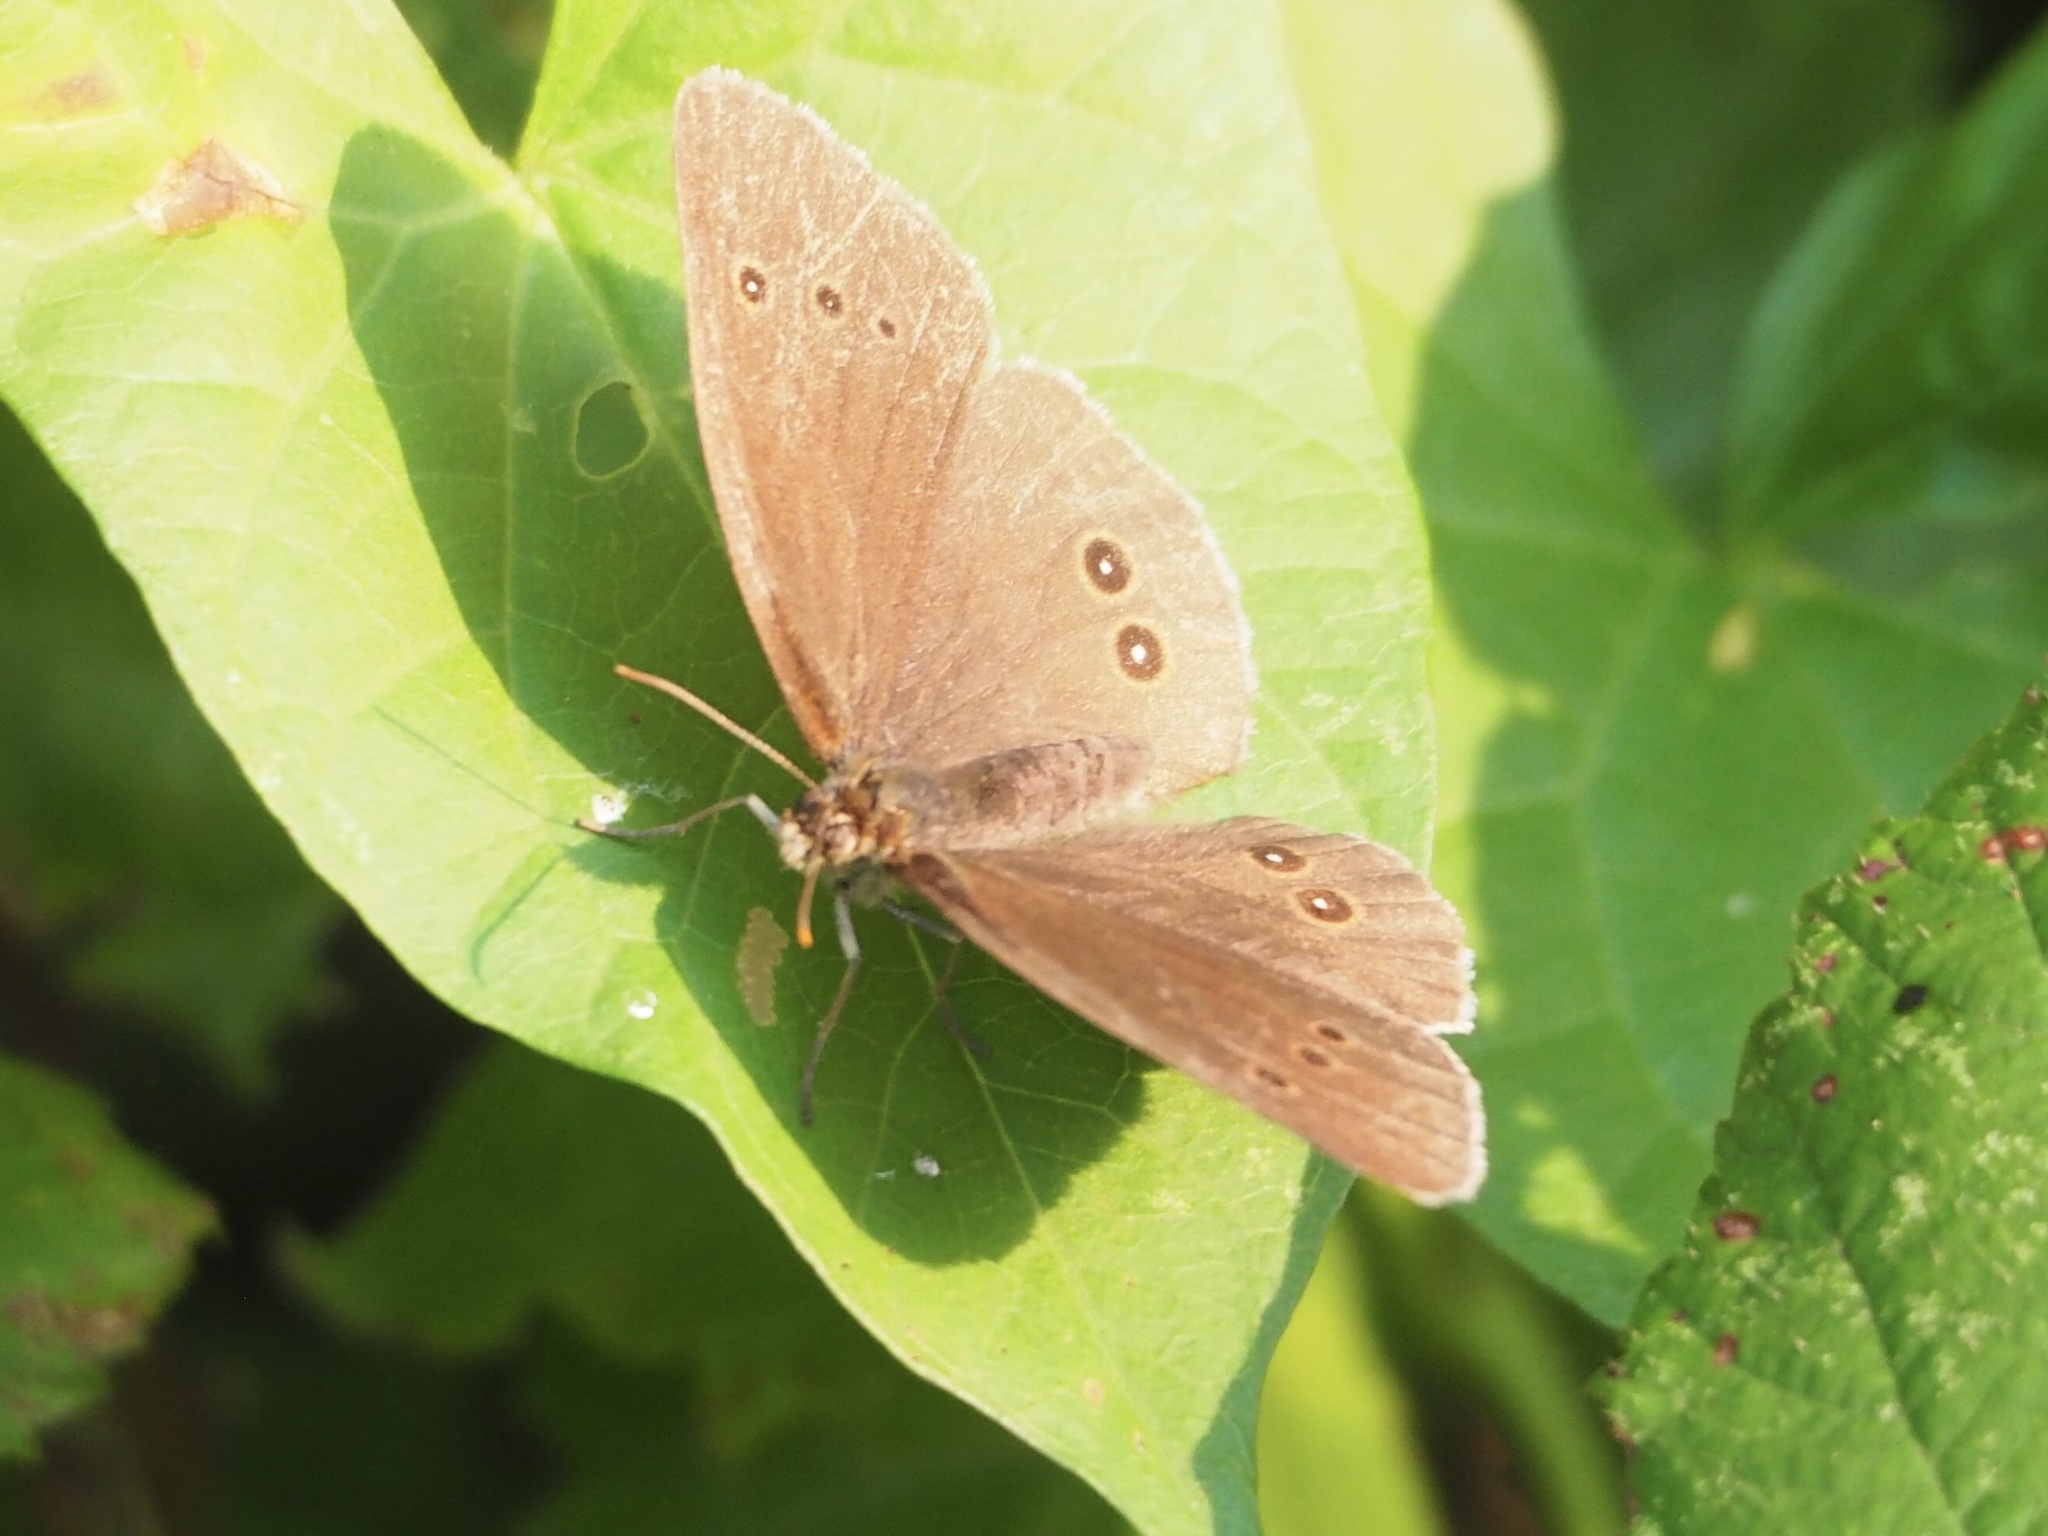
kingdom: Animalia
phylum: Arthropoda
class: Insecta
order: Lepidoptera
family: Nymphalidae
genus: Aphantopus
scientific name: Aphantopus hyperantus
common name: Ringlet
